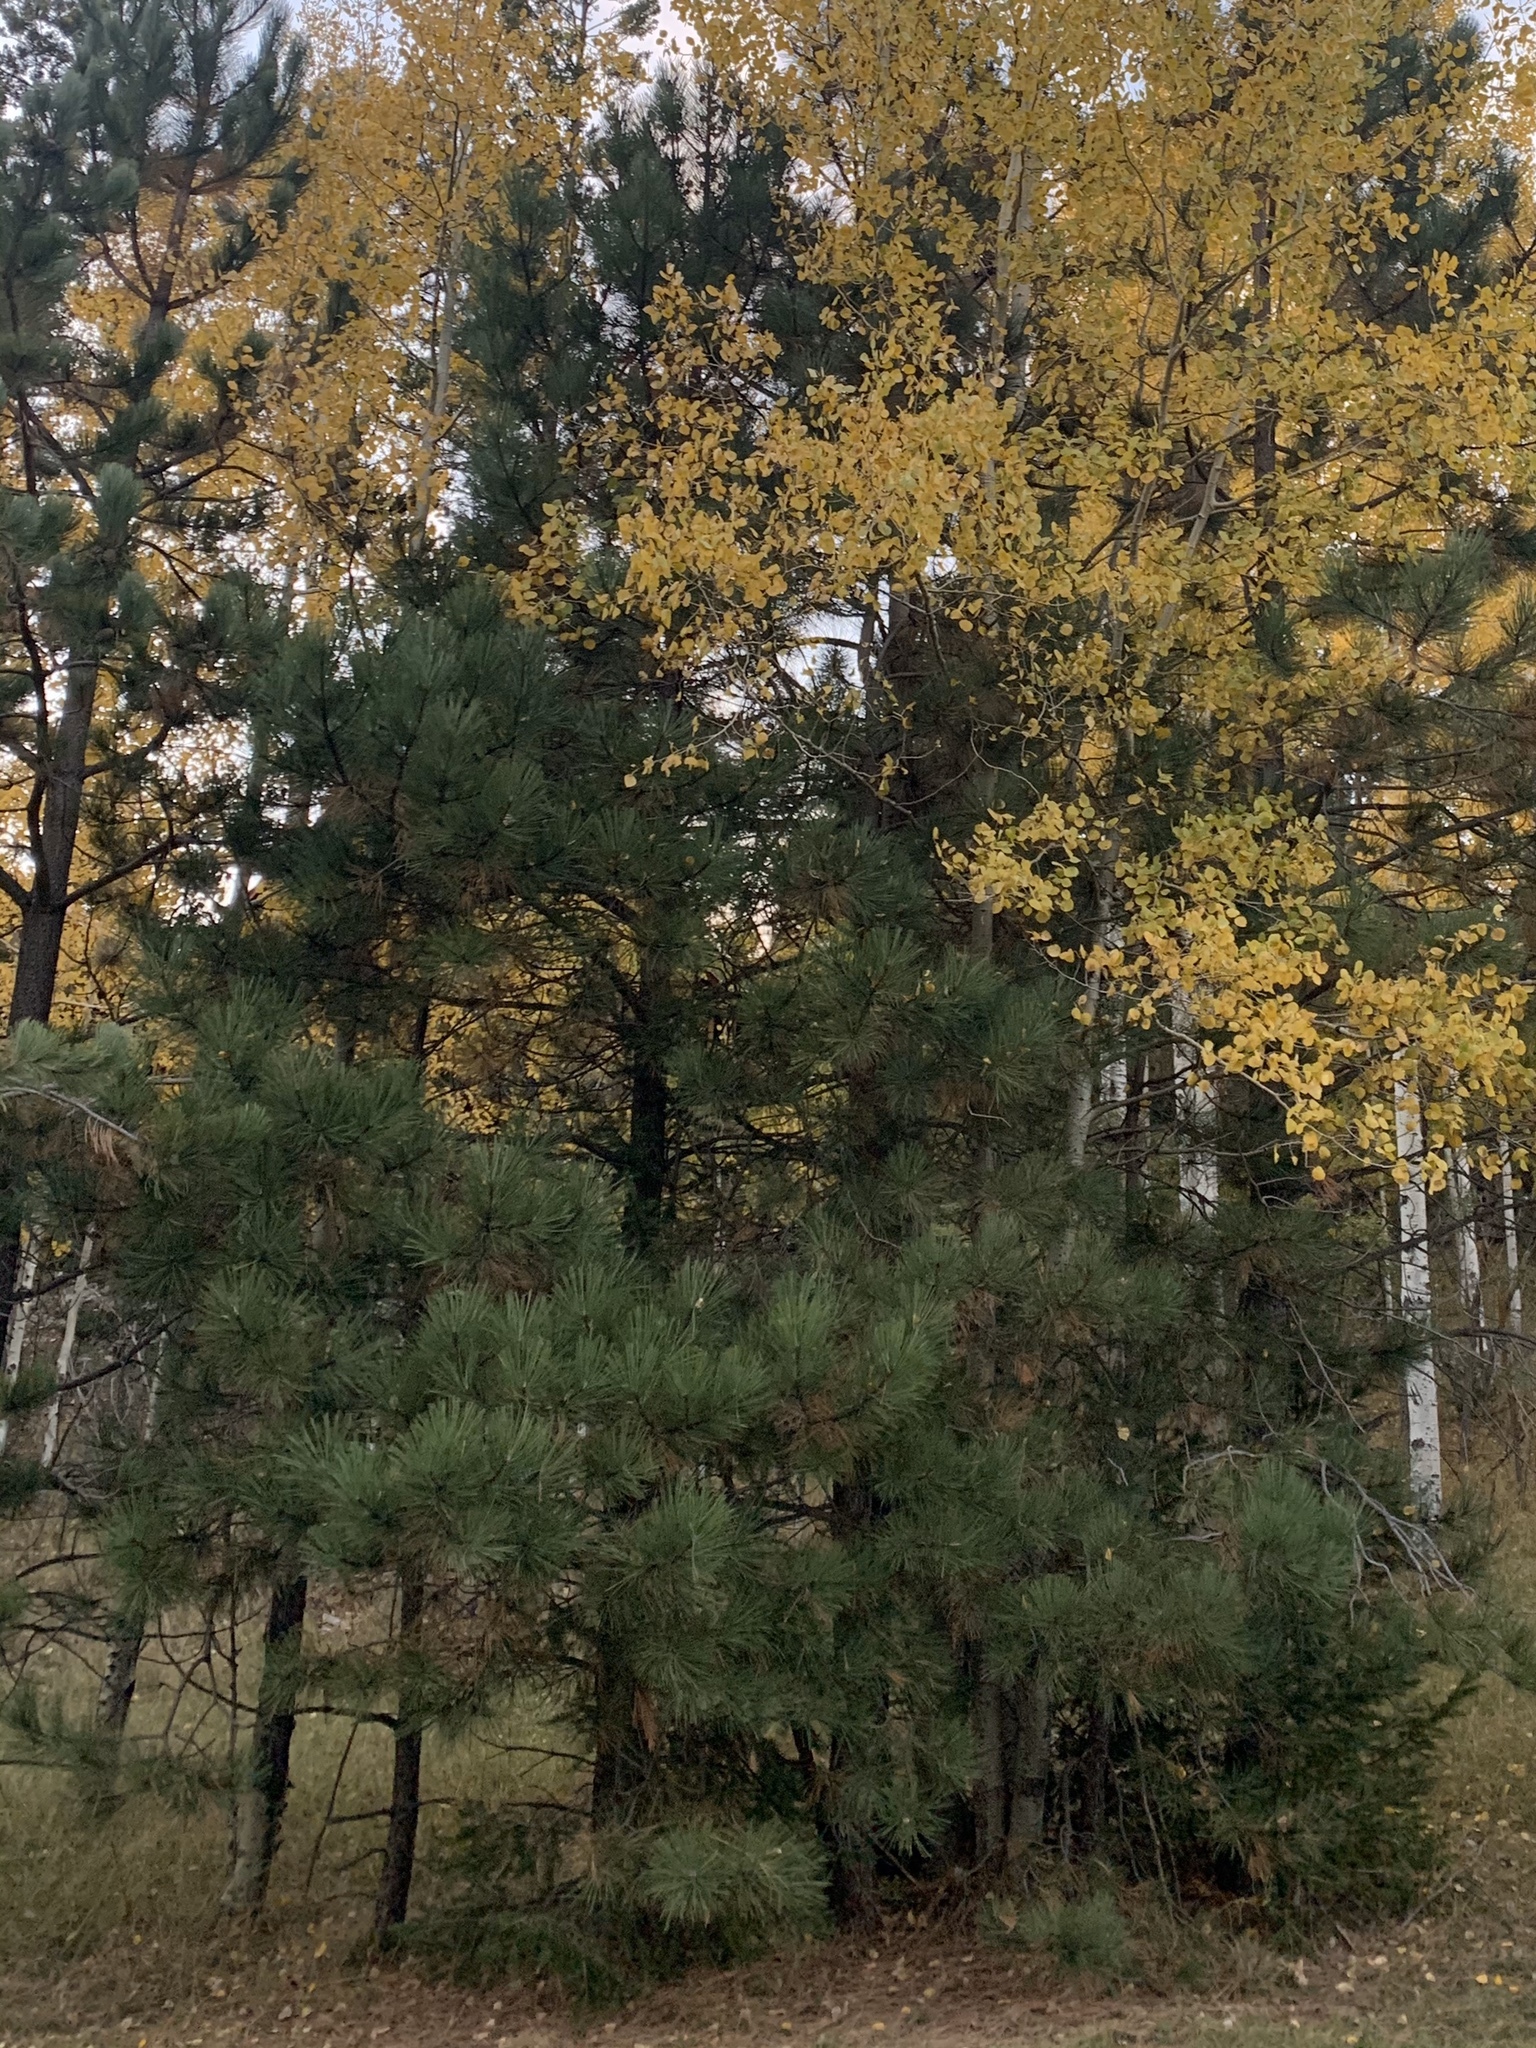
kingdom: Plantae
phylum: Tracheophyta
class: Pinopsida
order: Pinales
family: Pinaceae
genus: Pinus
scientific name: Pinus ponderosa
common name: Western yellow-pine
